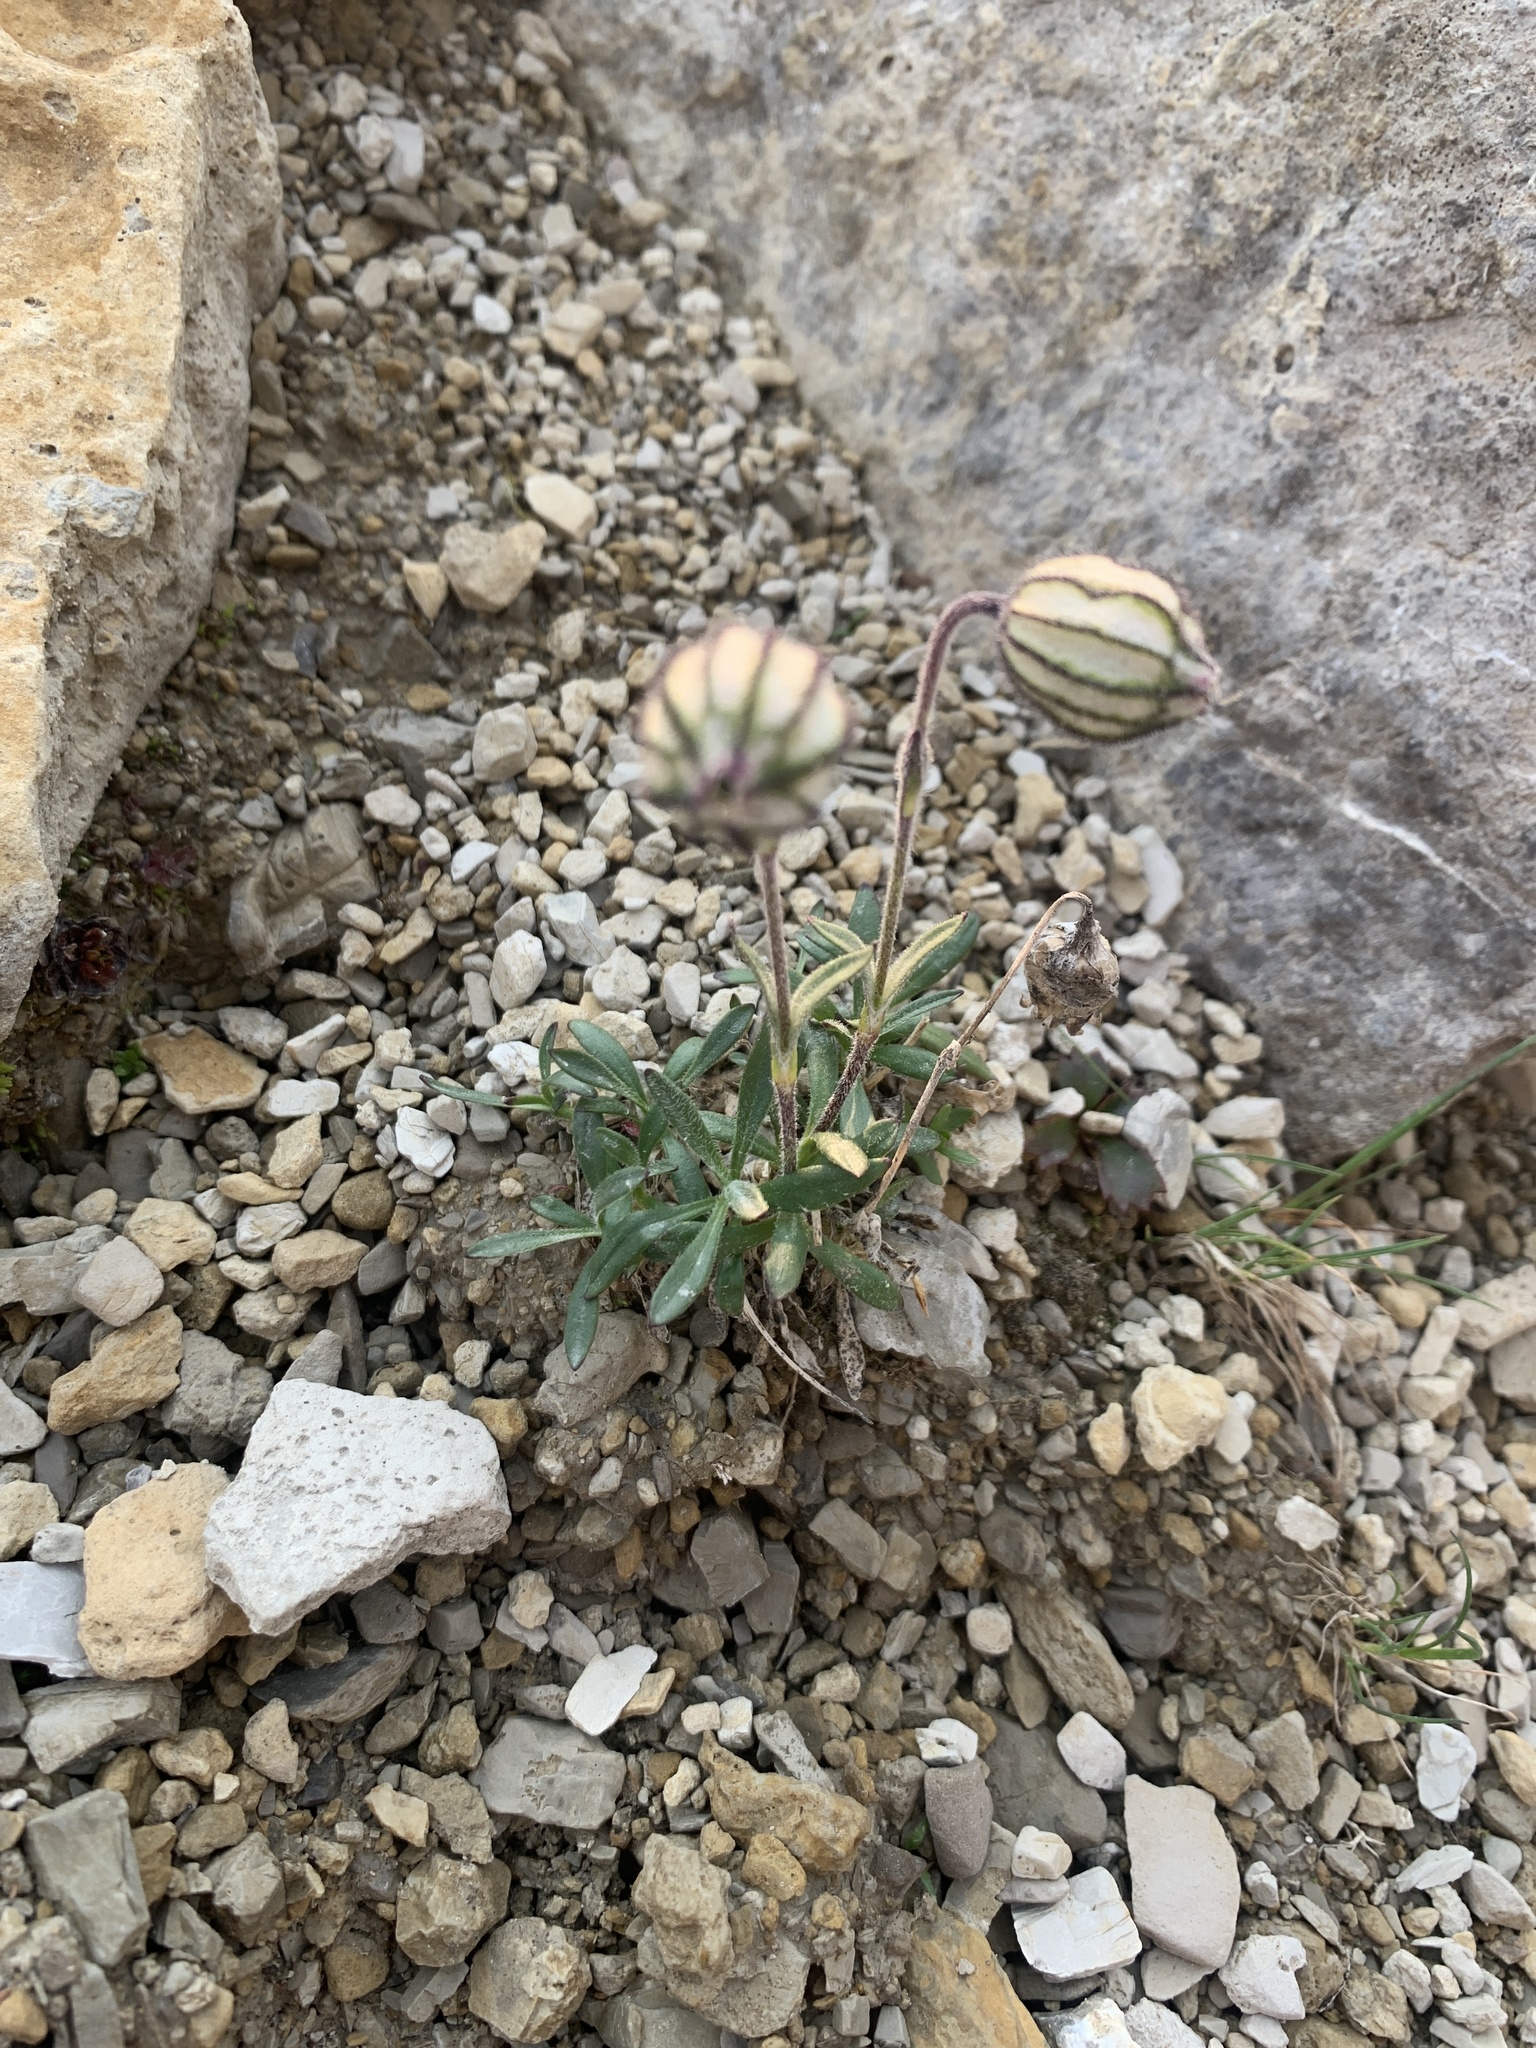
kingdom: Plantae
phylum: Tracheophyta
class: Magnoliopsida
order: Caryophyllales
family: Caryophyllaceae
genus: Silene
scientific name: Silene uralensis
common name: Nodding campion
